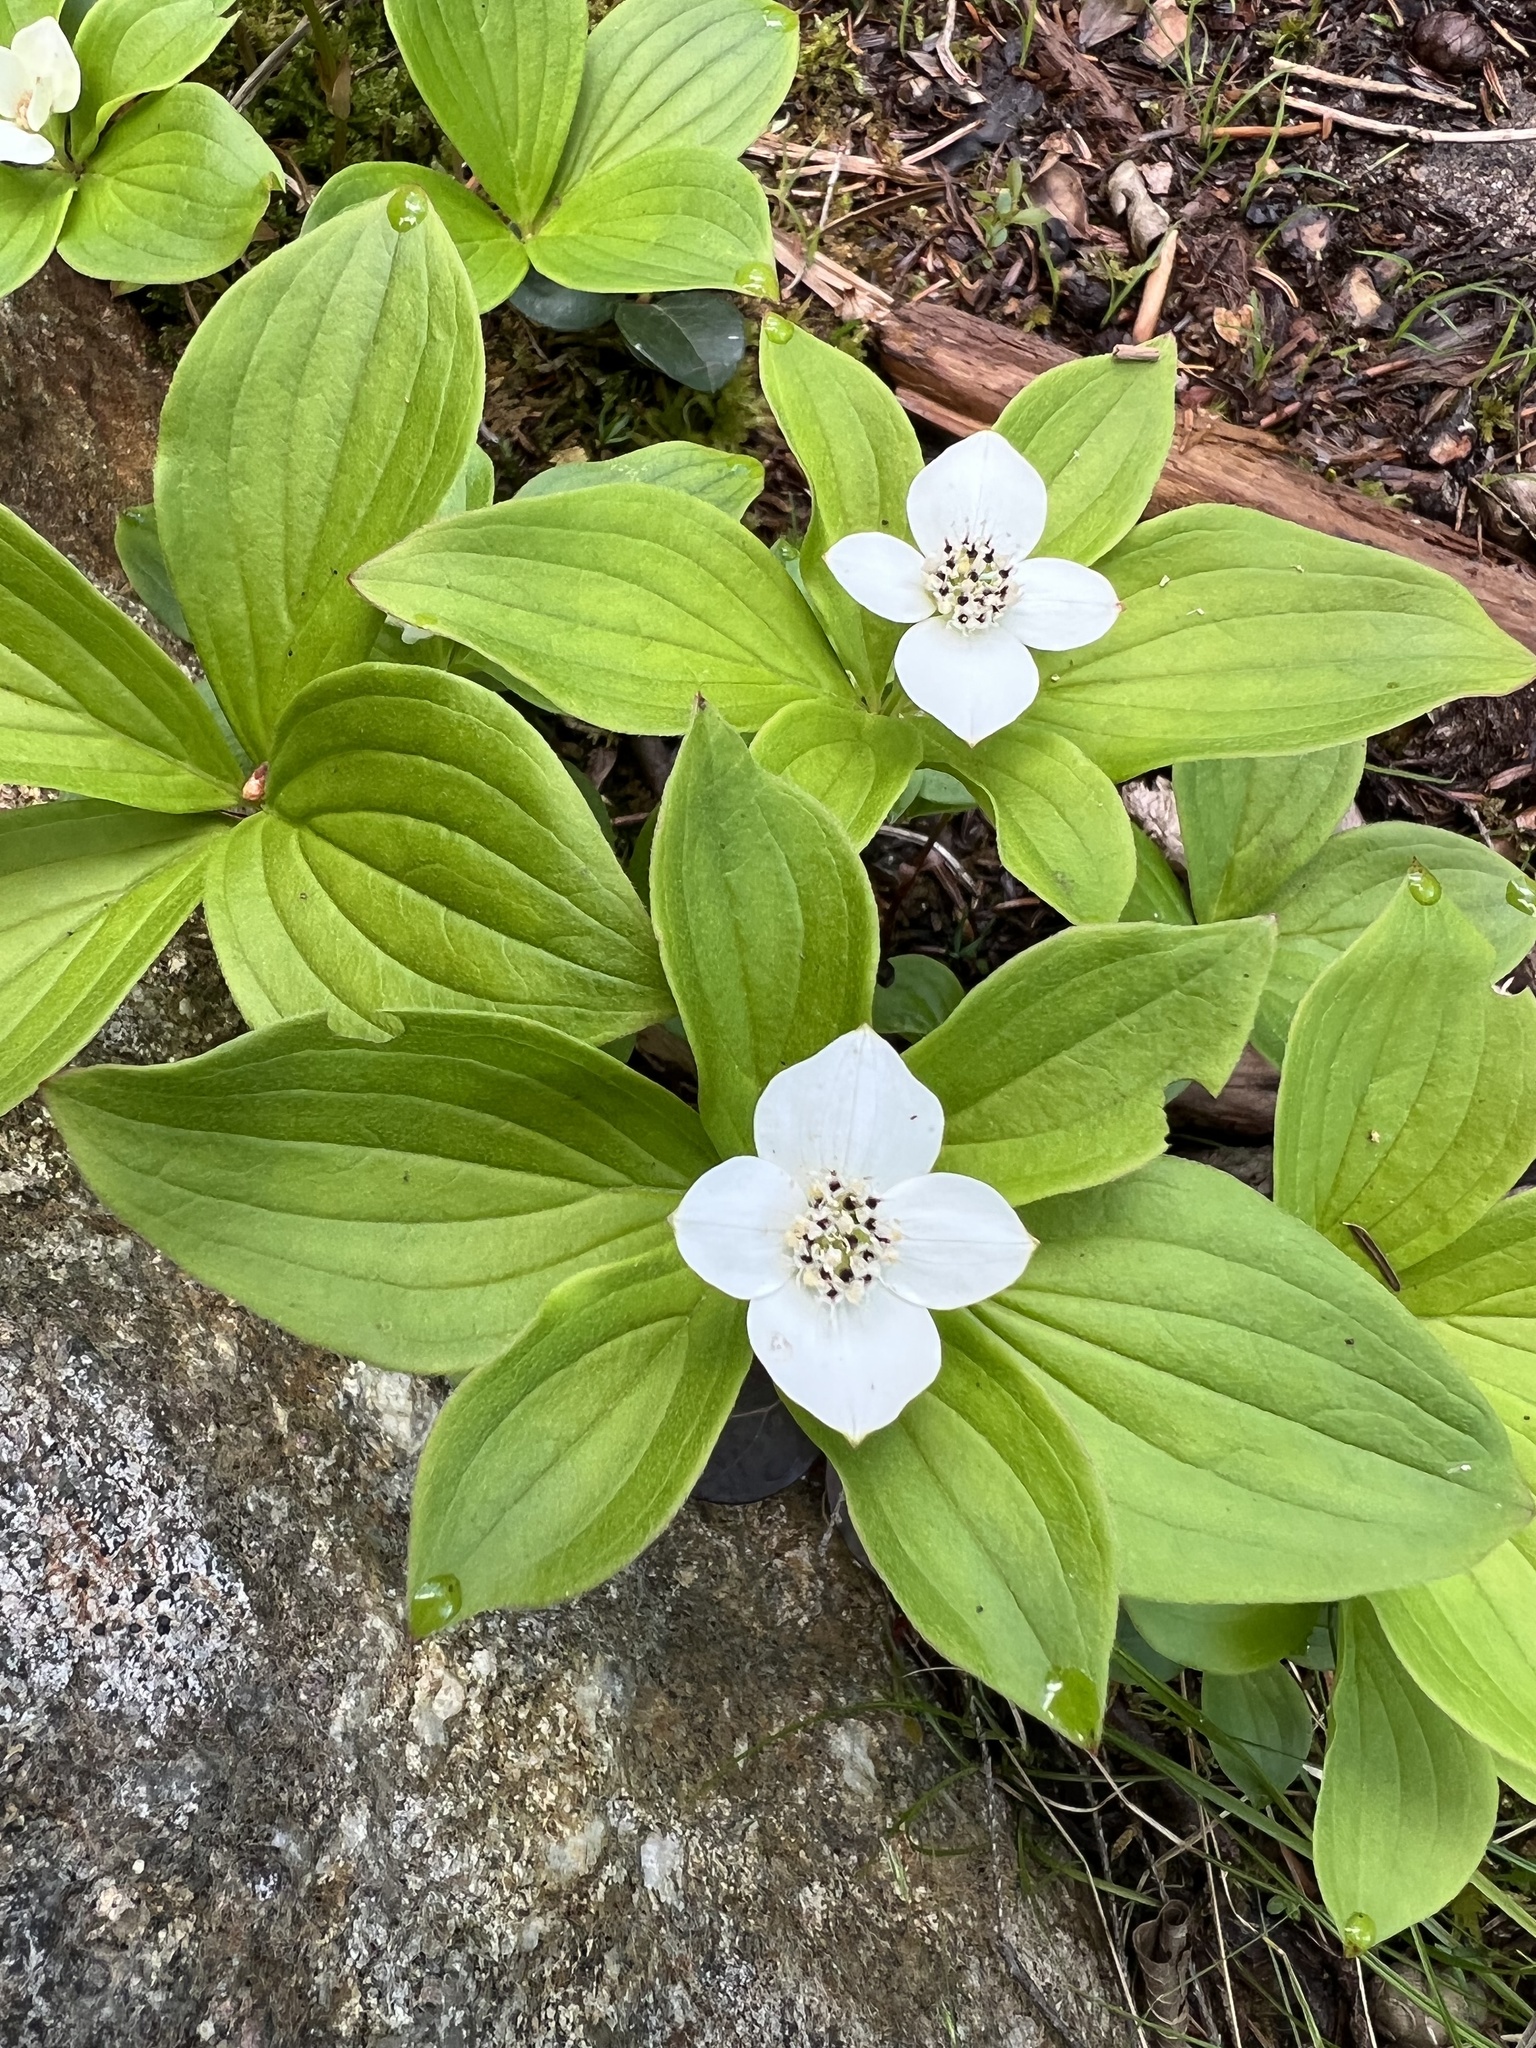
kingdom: Plantae
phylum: Tracheophyta
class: Magnoliopsida
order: Cornales
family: Cornaceae
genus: Cornus
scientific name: Cornus canadensis
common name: Creeping dogwood
